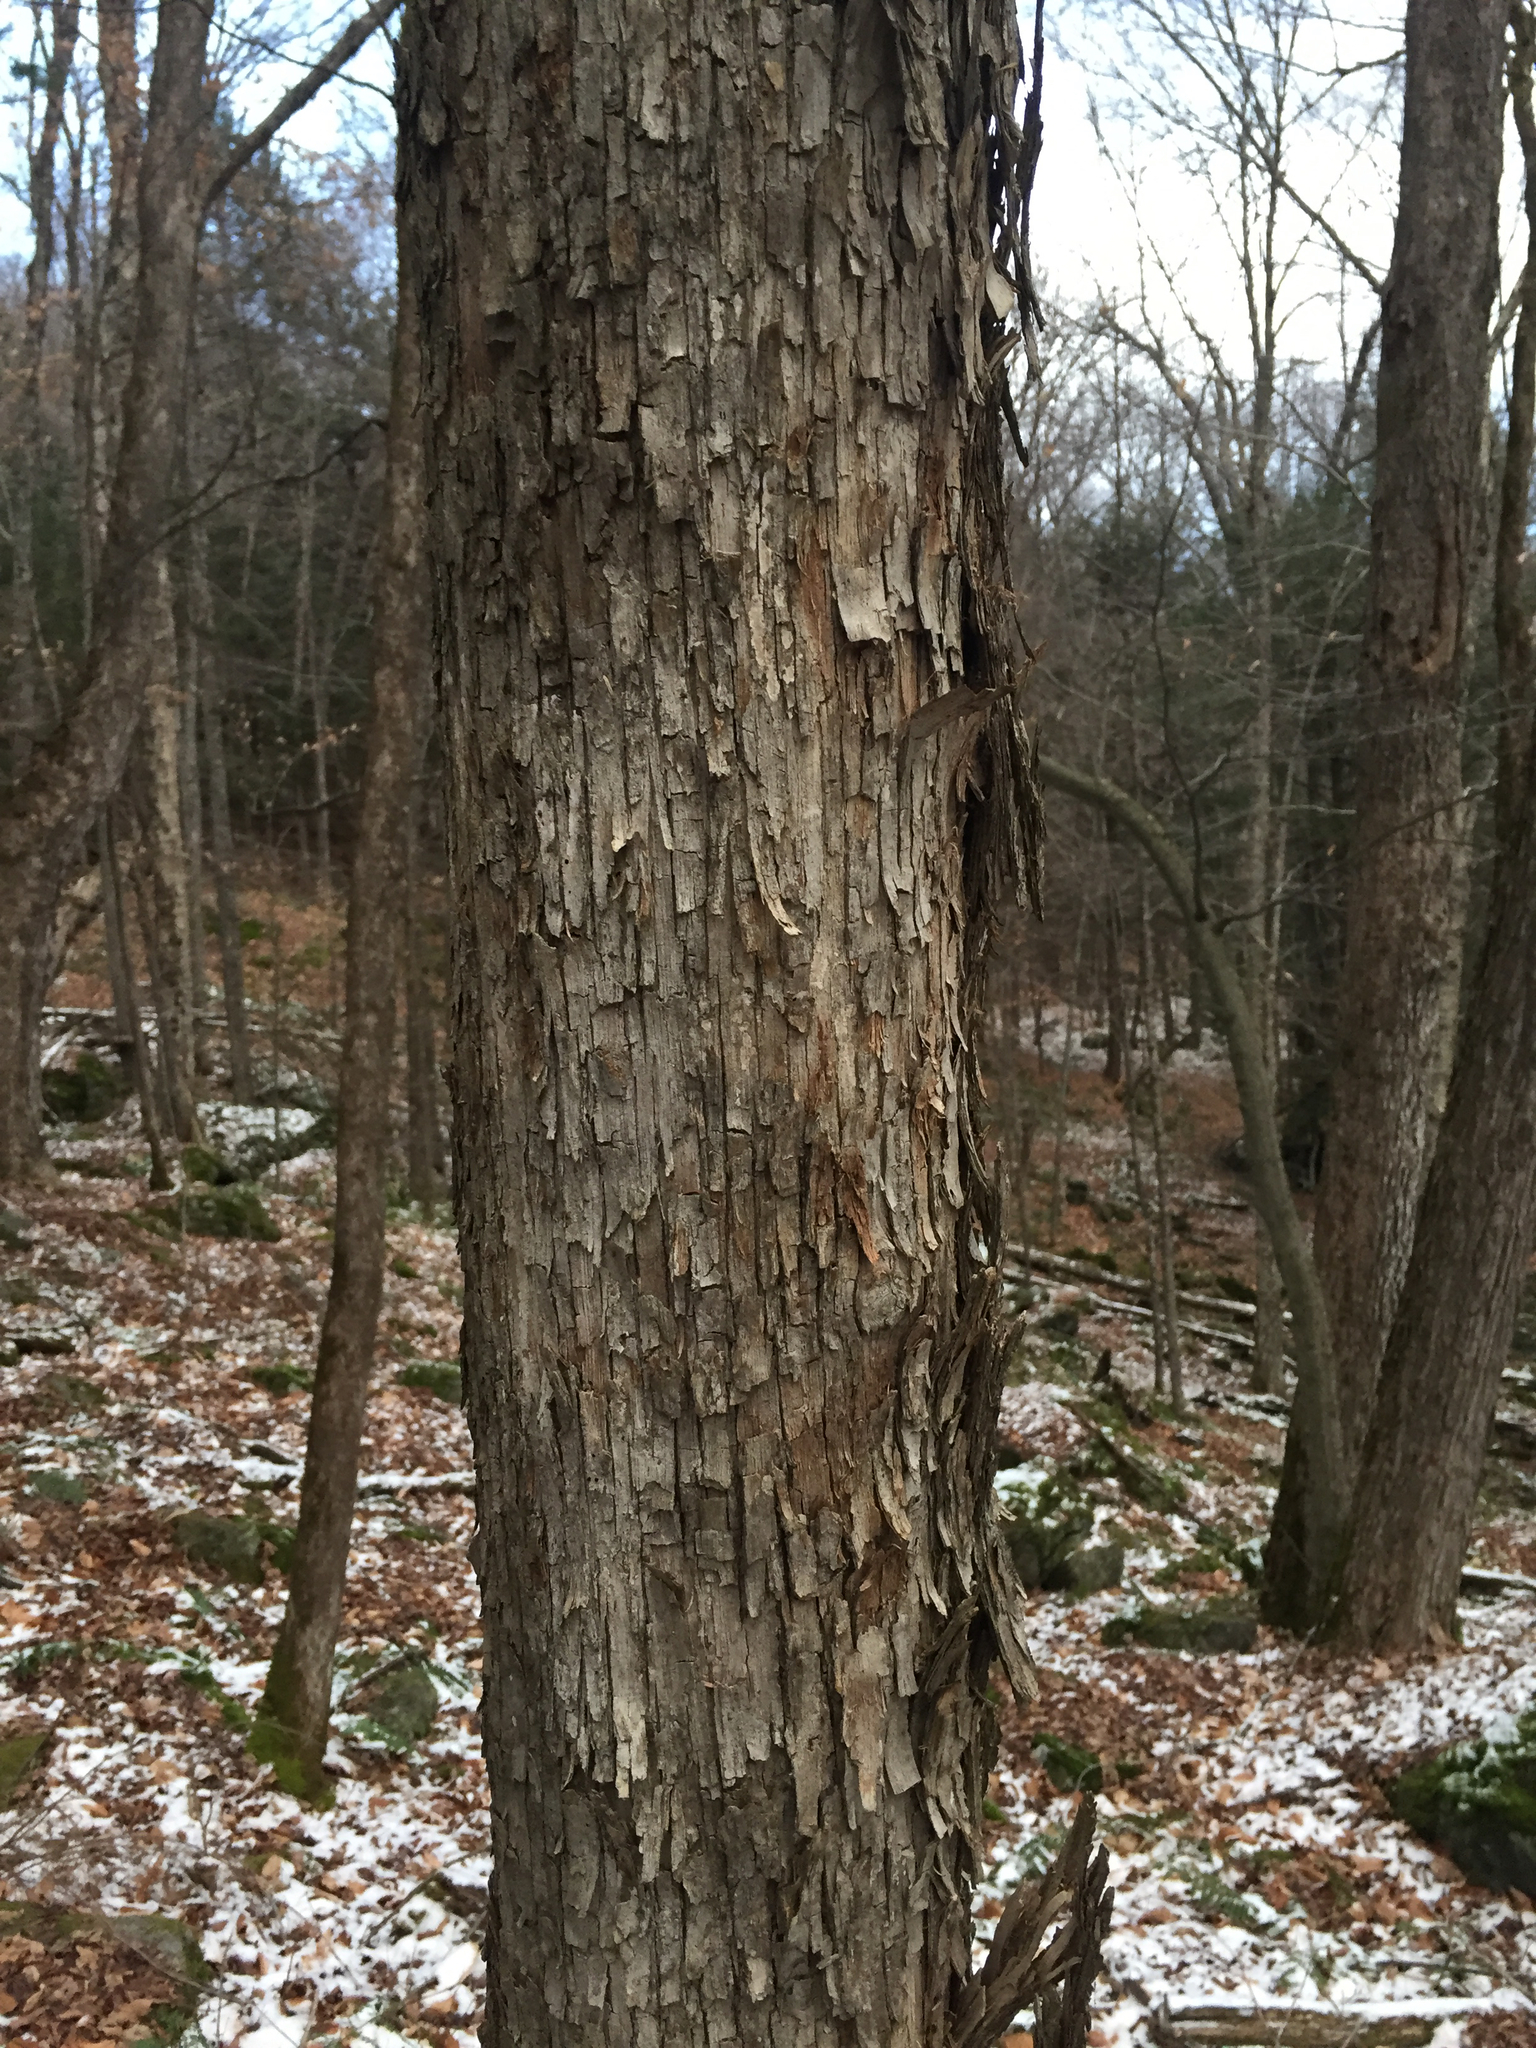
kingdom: Plantae
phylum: Tracheophyta
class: Magnoliopsida
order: Fagales
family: Betulaceae
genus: Ostrya
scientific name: Ostrya virginiana
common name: Ironwood
